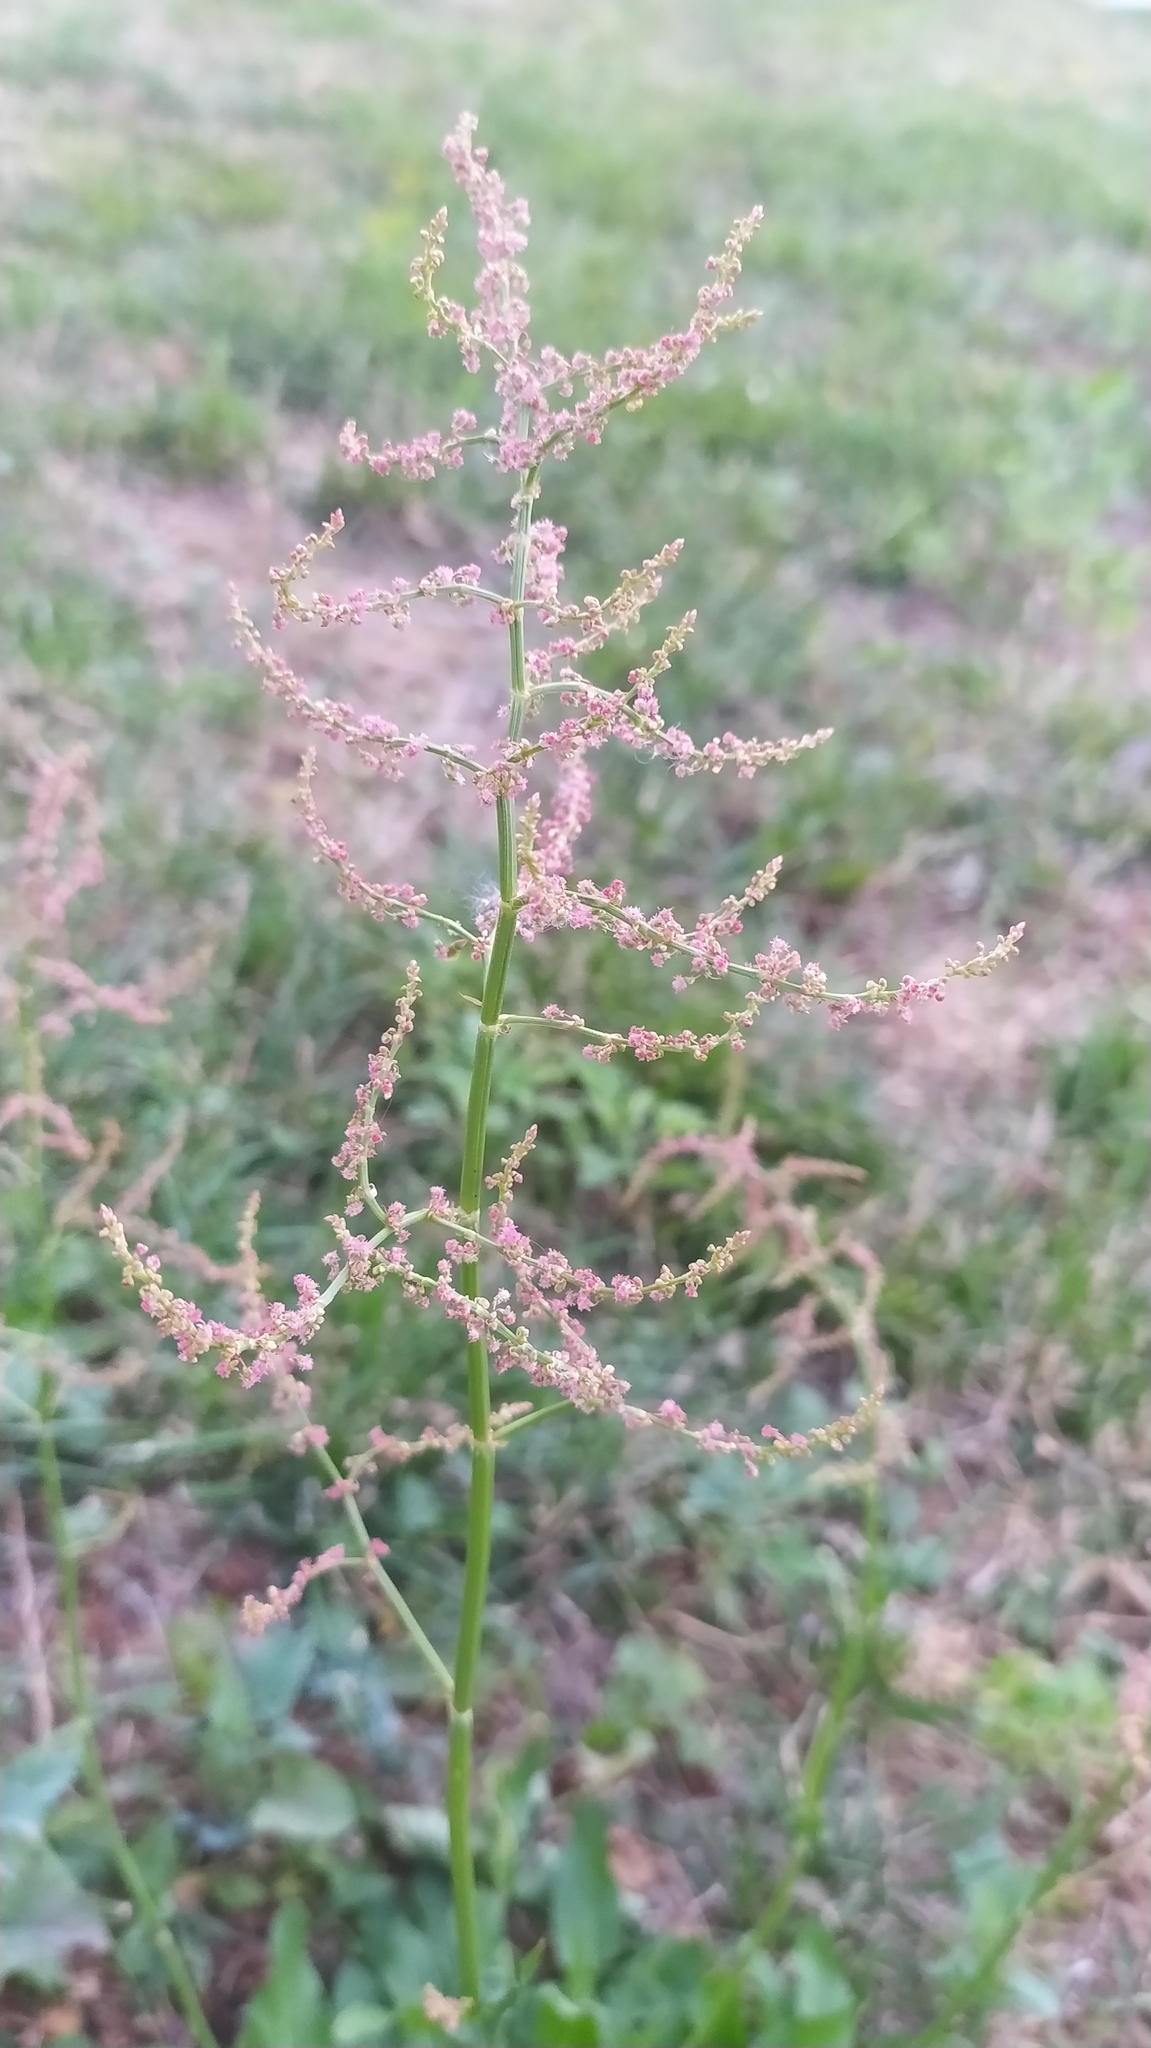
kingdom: Plantae
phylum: Tracheophyta
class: Magnoliopsida
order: Caryophyllales
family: Polygonaceae
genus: Rumex
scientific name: Rumex thyrsiflorus
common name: Garden sorrel
